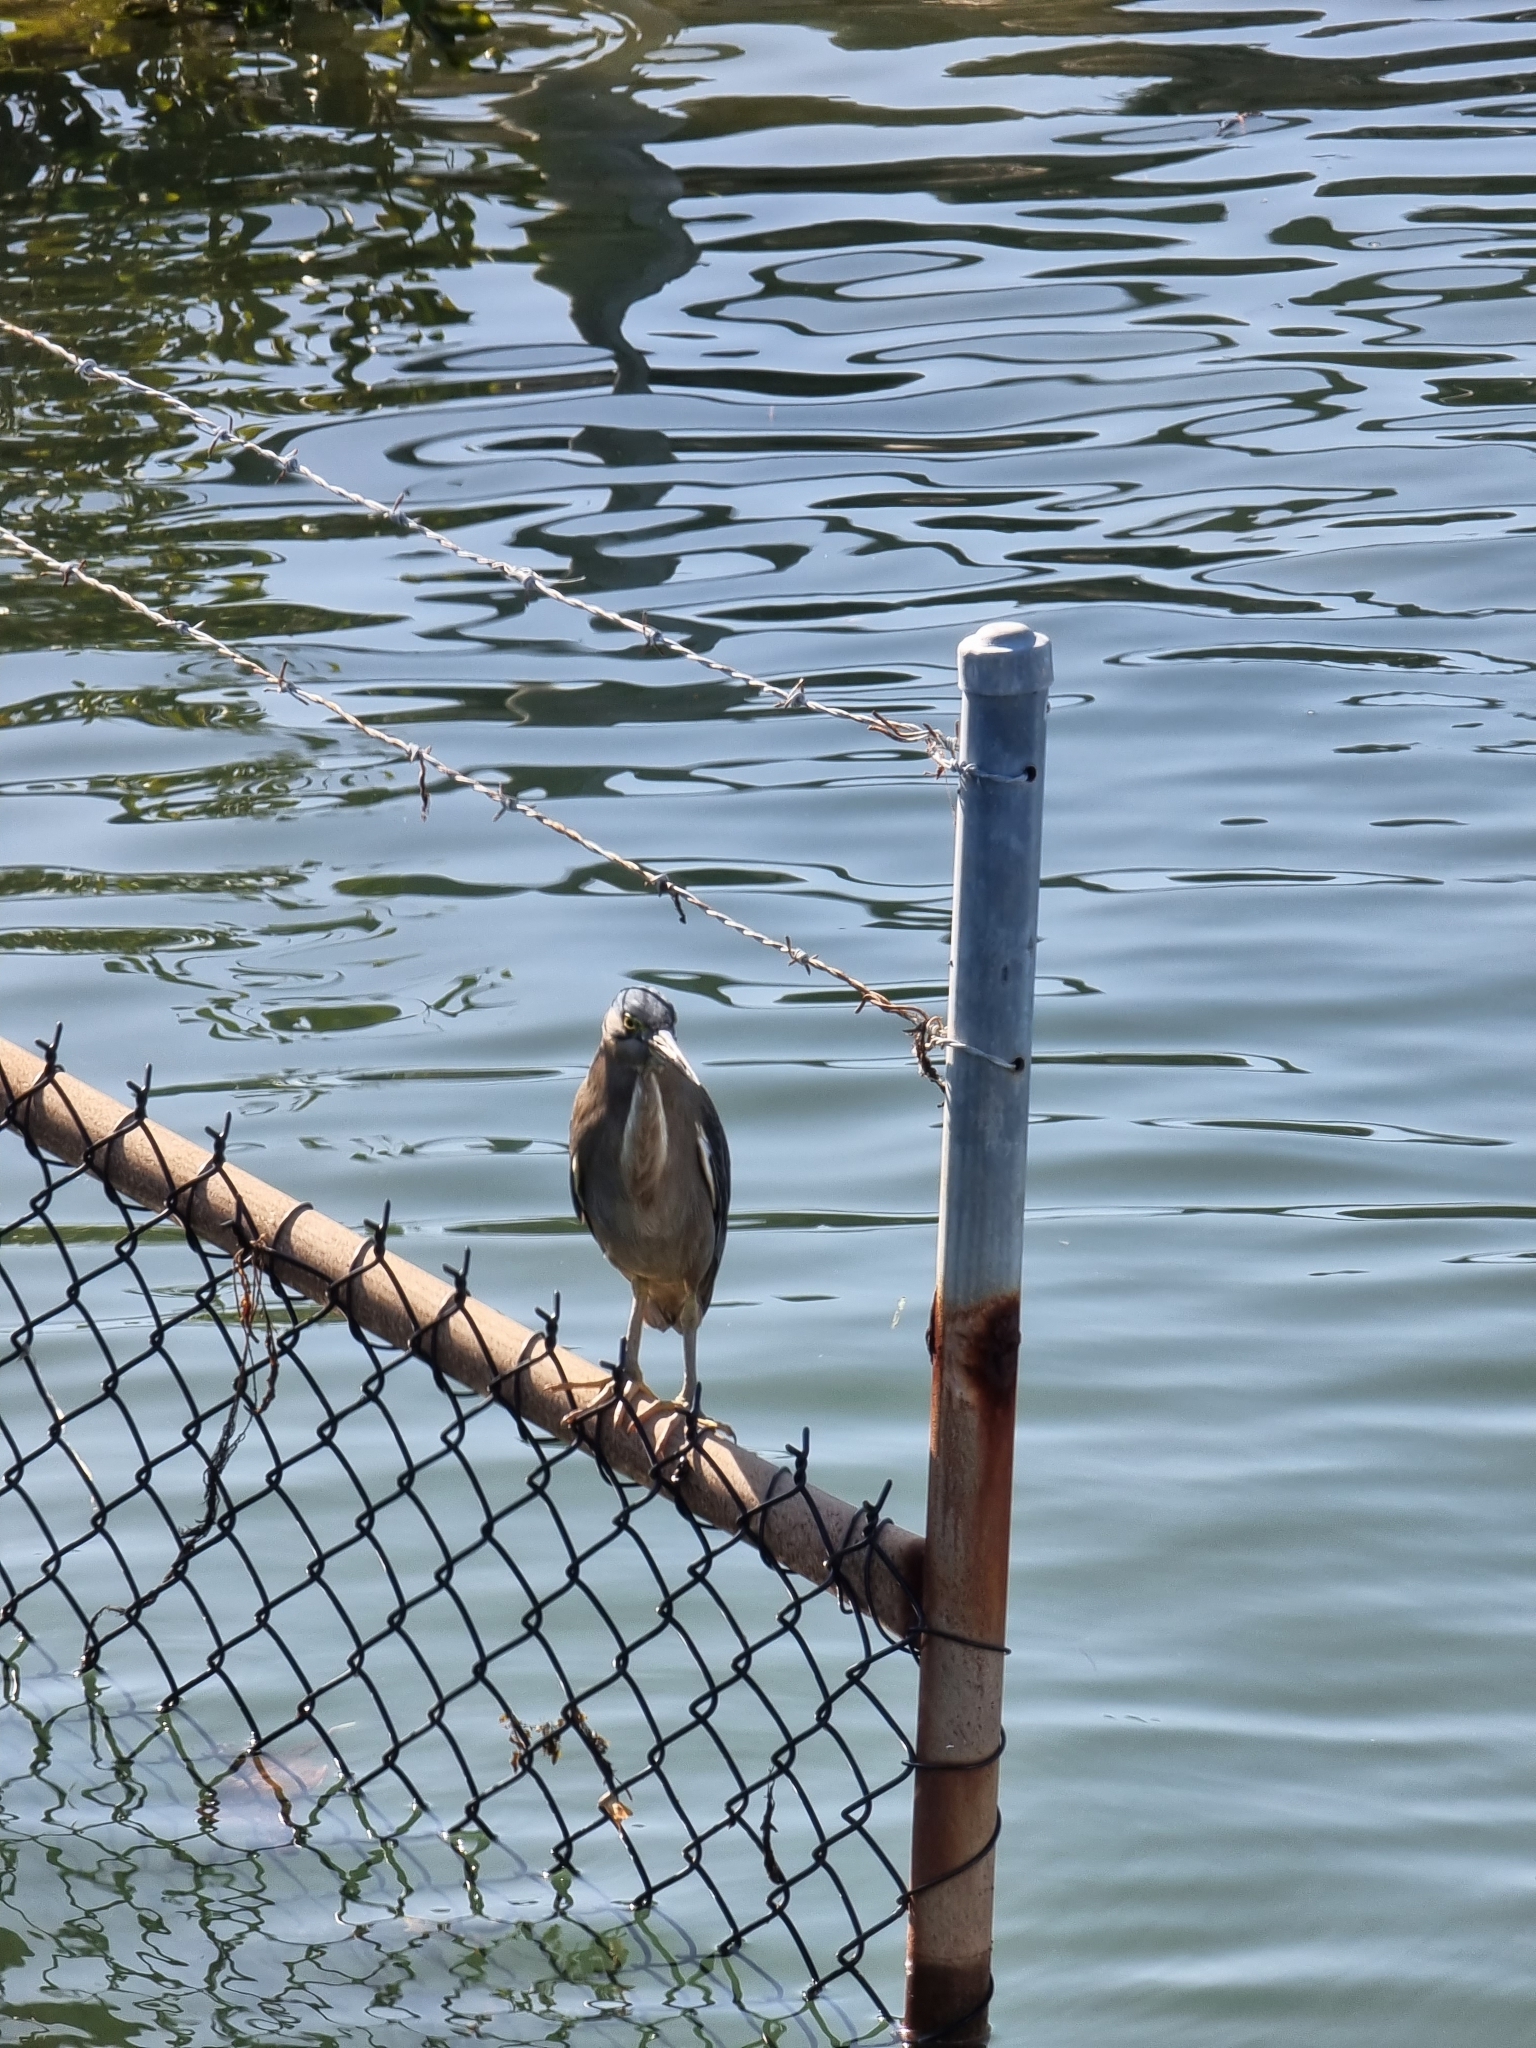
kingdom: Animalia
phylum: Chordata
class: Aves
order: Pelecaniformes
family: Ardeidae
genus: Butorides
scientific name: Butorides striata
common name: Striated heron
